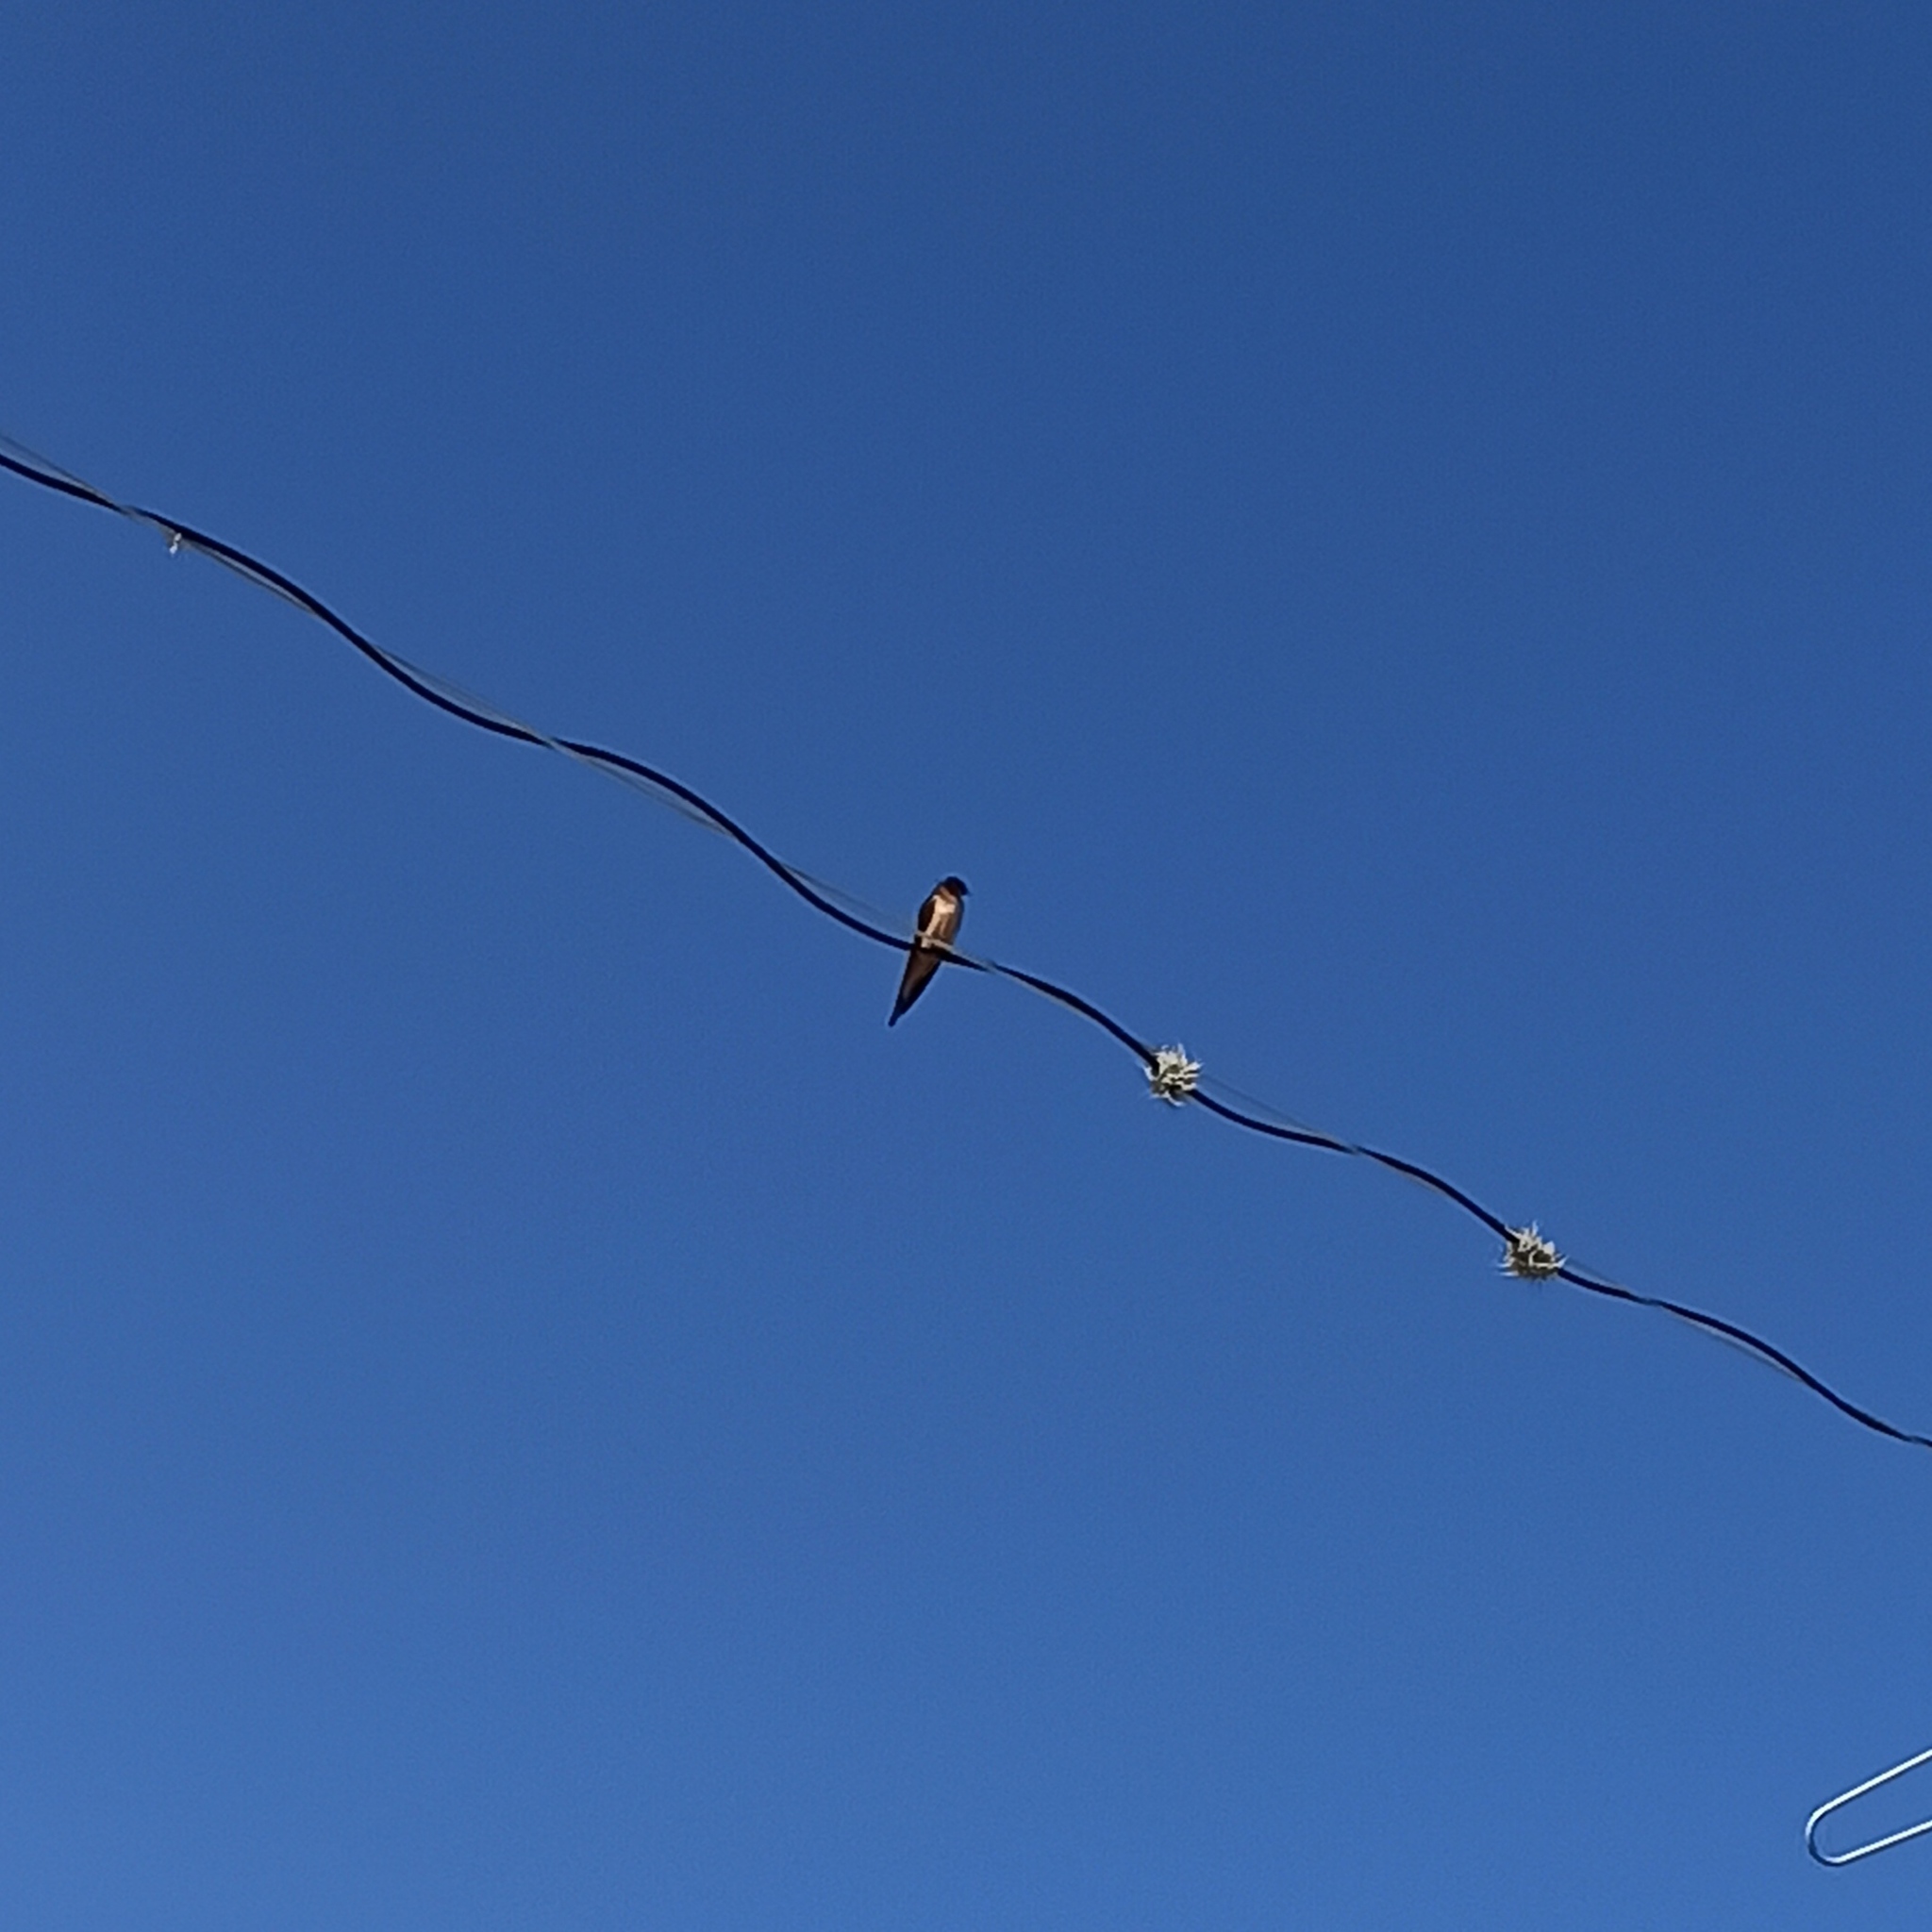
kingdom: Animalia
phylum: Chordata
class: Aves
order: Passeriformes
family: Hirundinidae
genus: Hirundo
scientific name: Hirundo rustica
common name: Barn swallow
